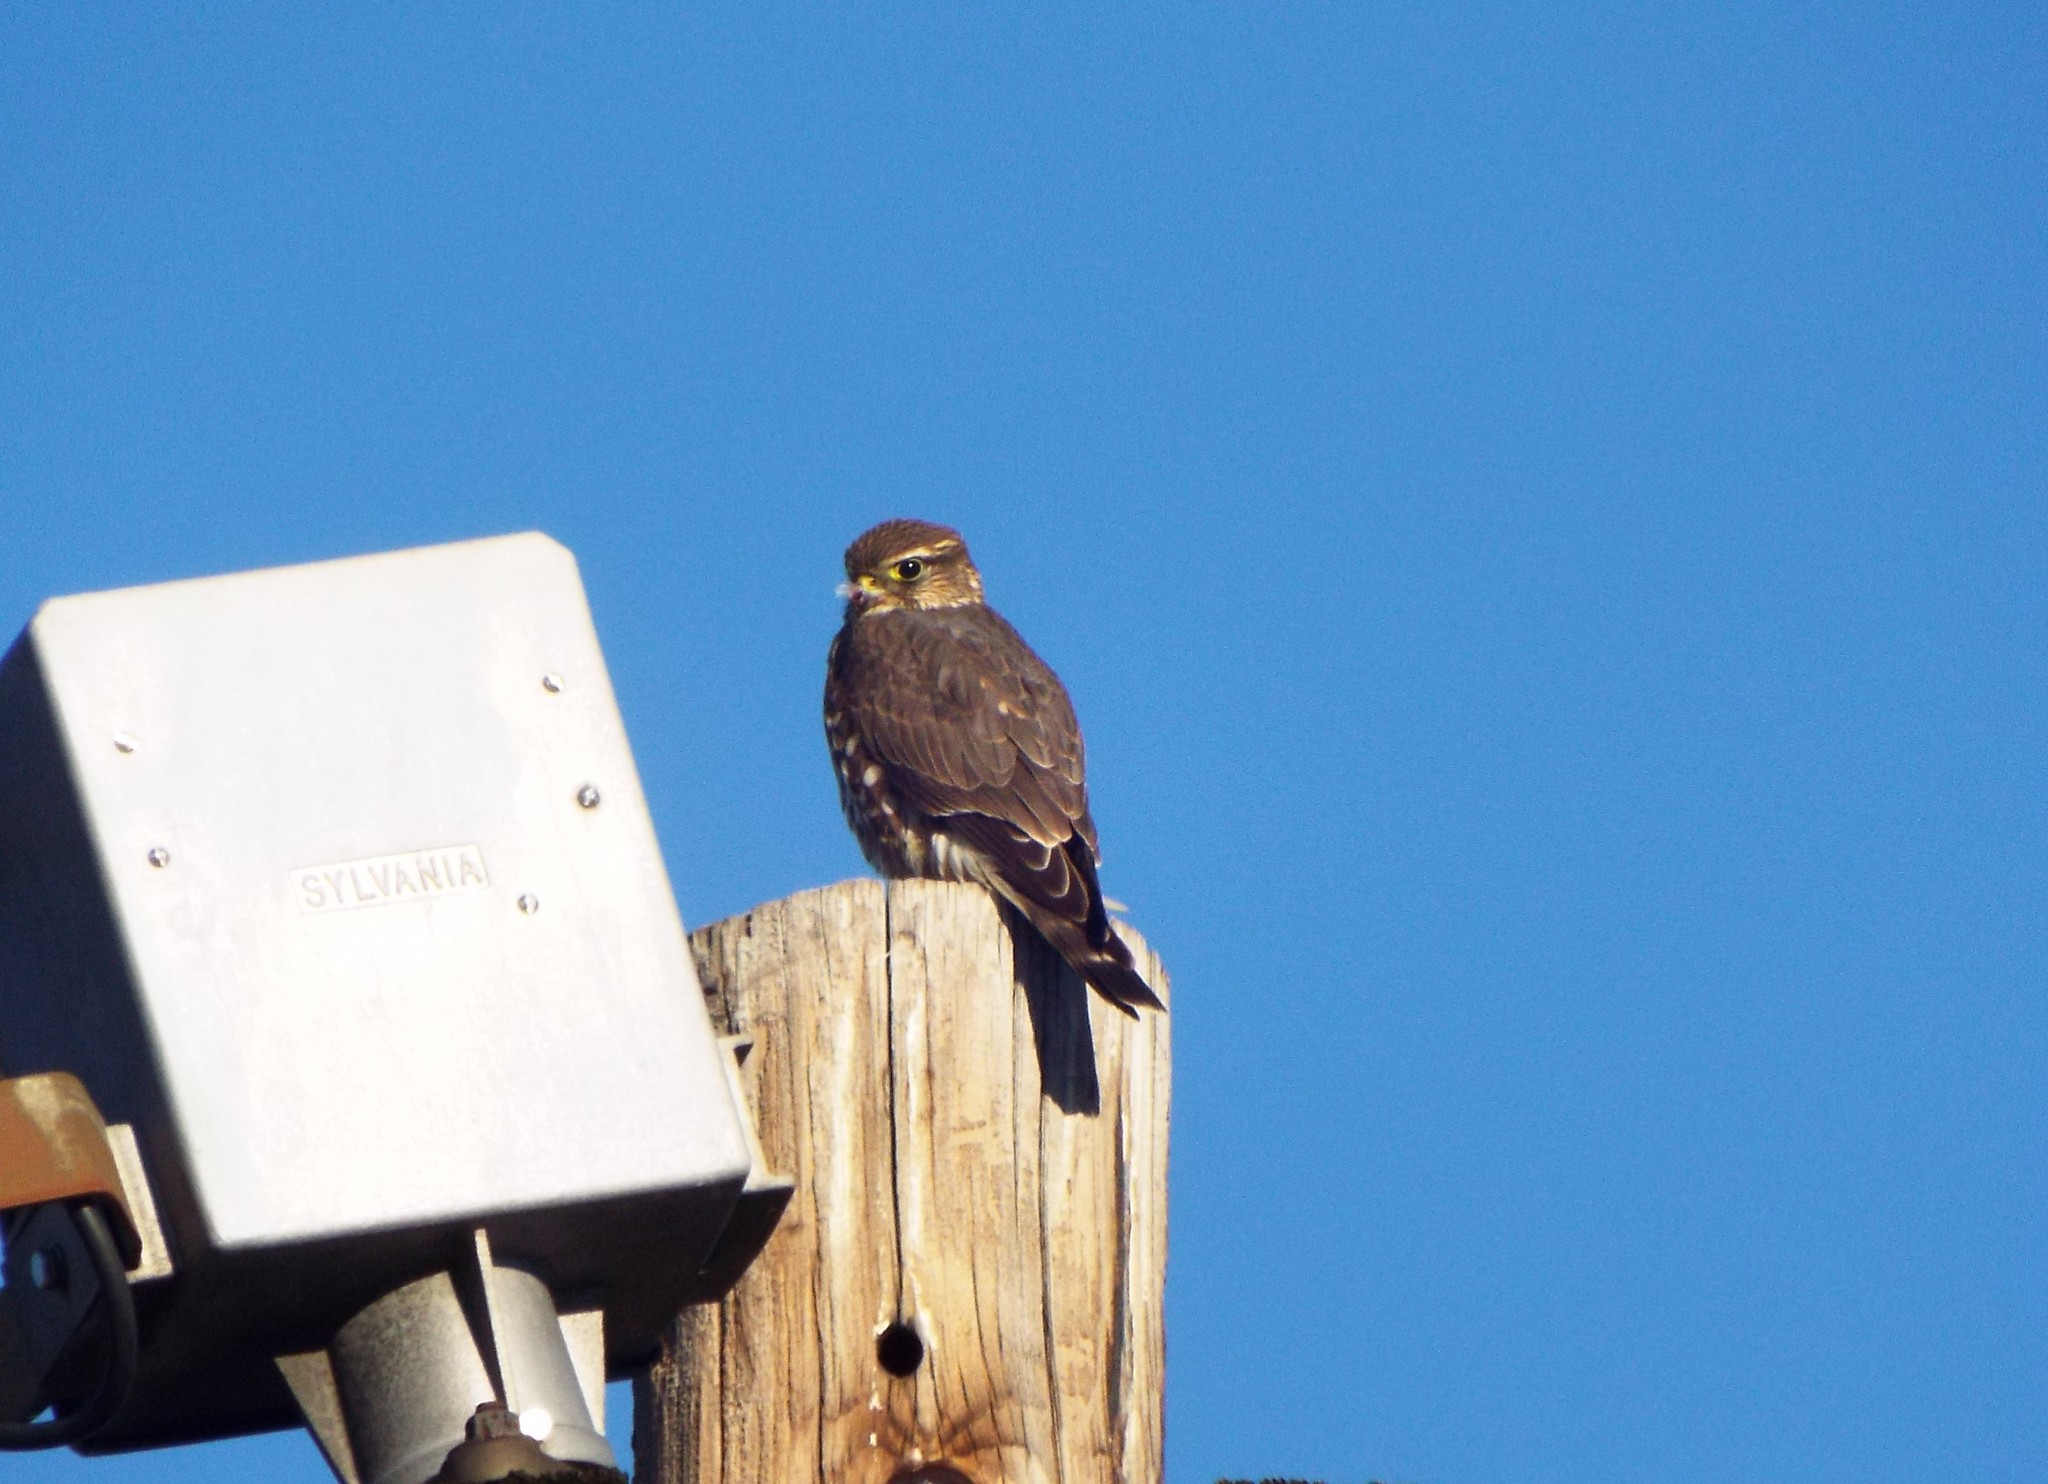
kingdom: Animalia
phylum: Chordata
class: Aves
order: Falconiformes
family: Falconidae
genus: Falco
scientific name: Falco columbarius
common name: Merlin
